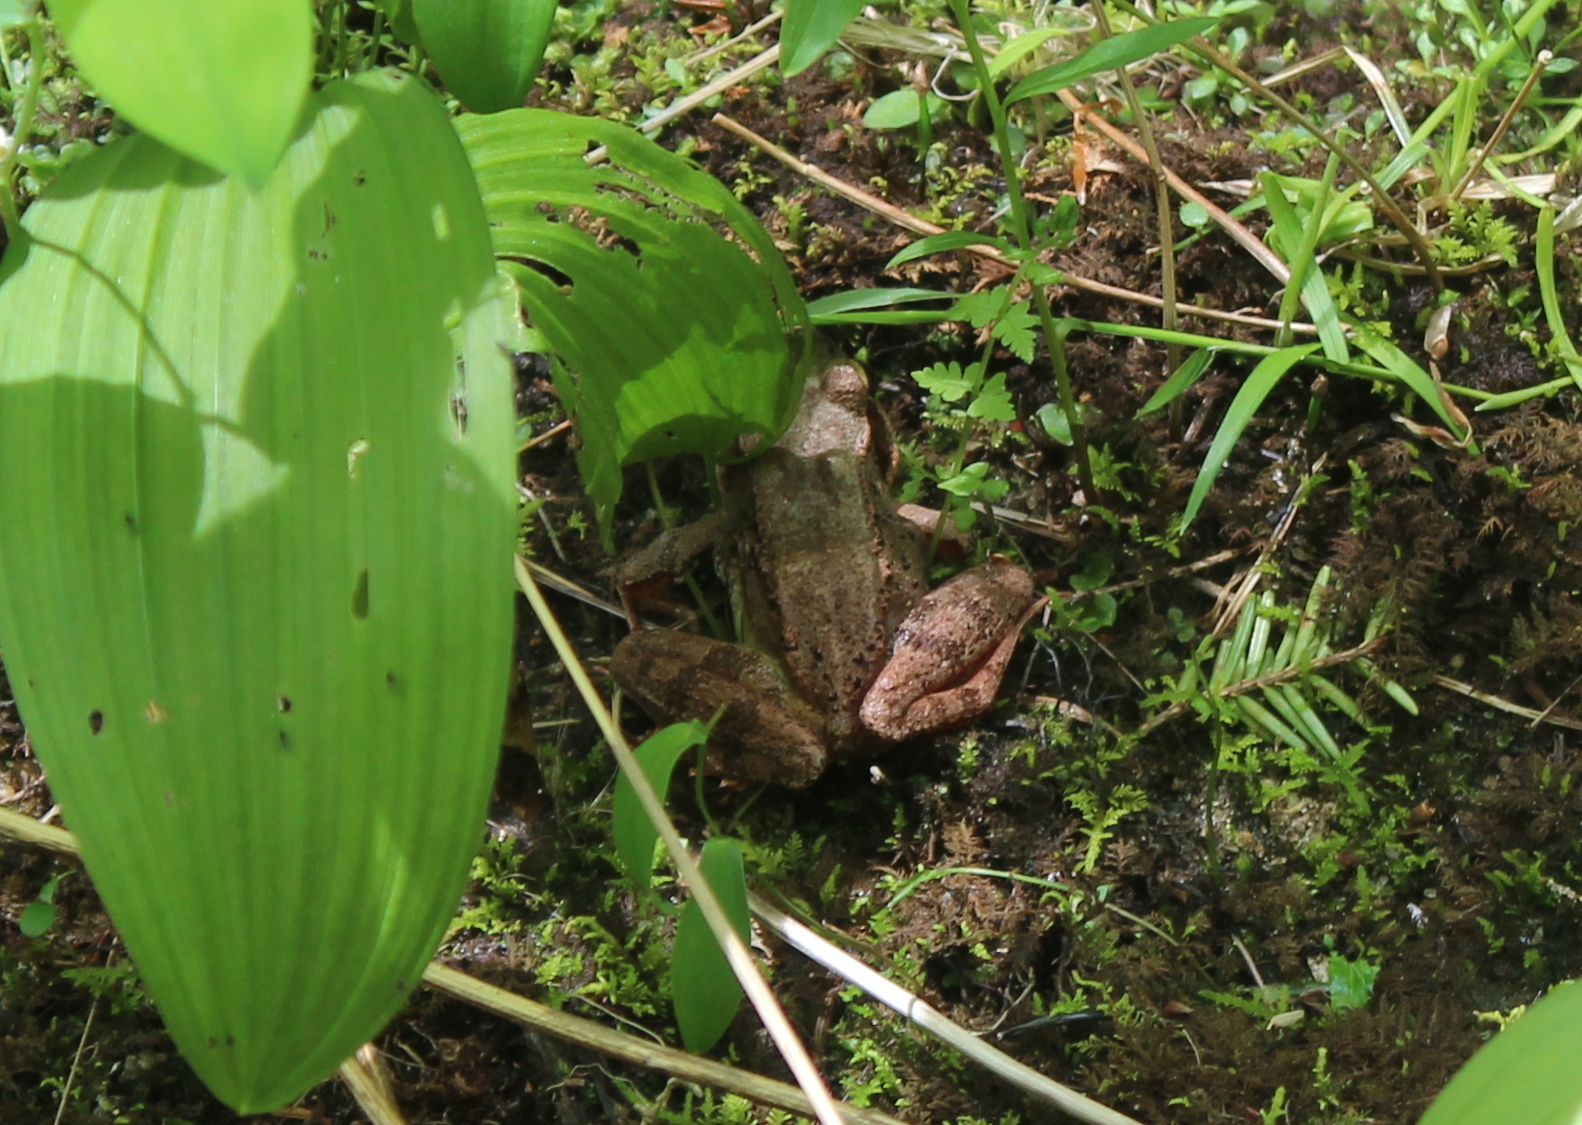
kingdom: Animalia
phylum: Chordata
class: Amphibia
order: Anura
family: Ranidae
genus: Lithobates
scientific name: Lithobates sylvaticus
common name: Wood frog
